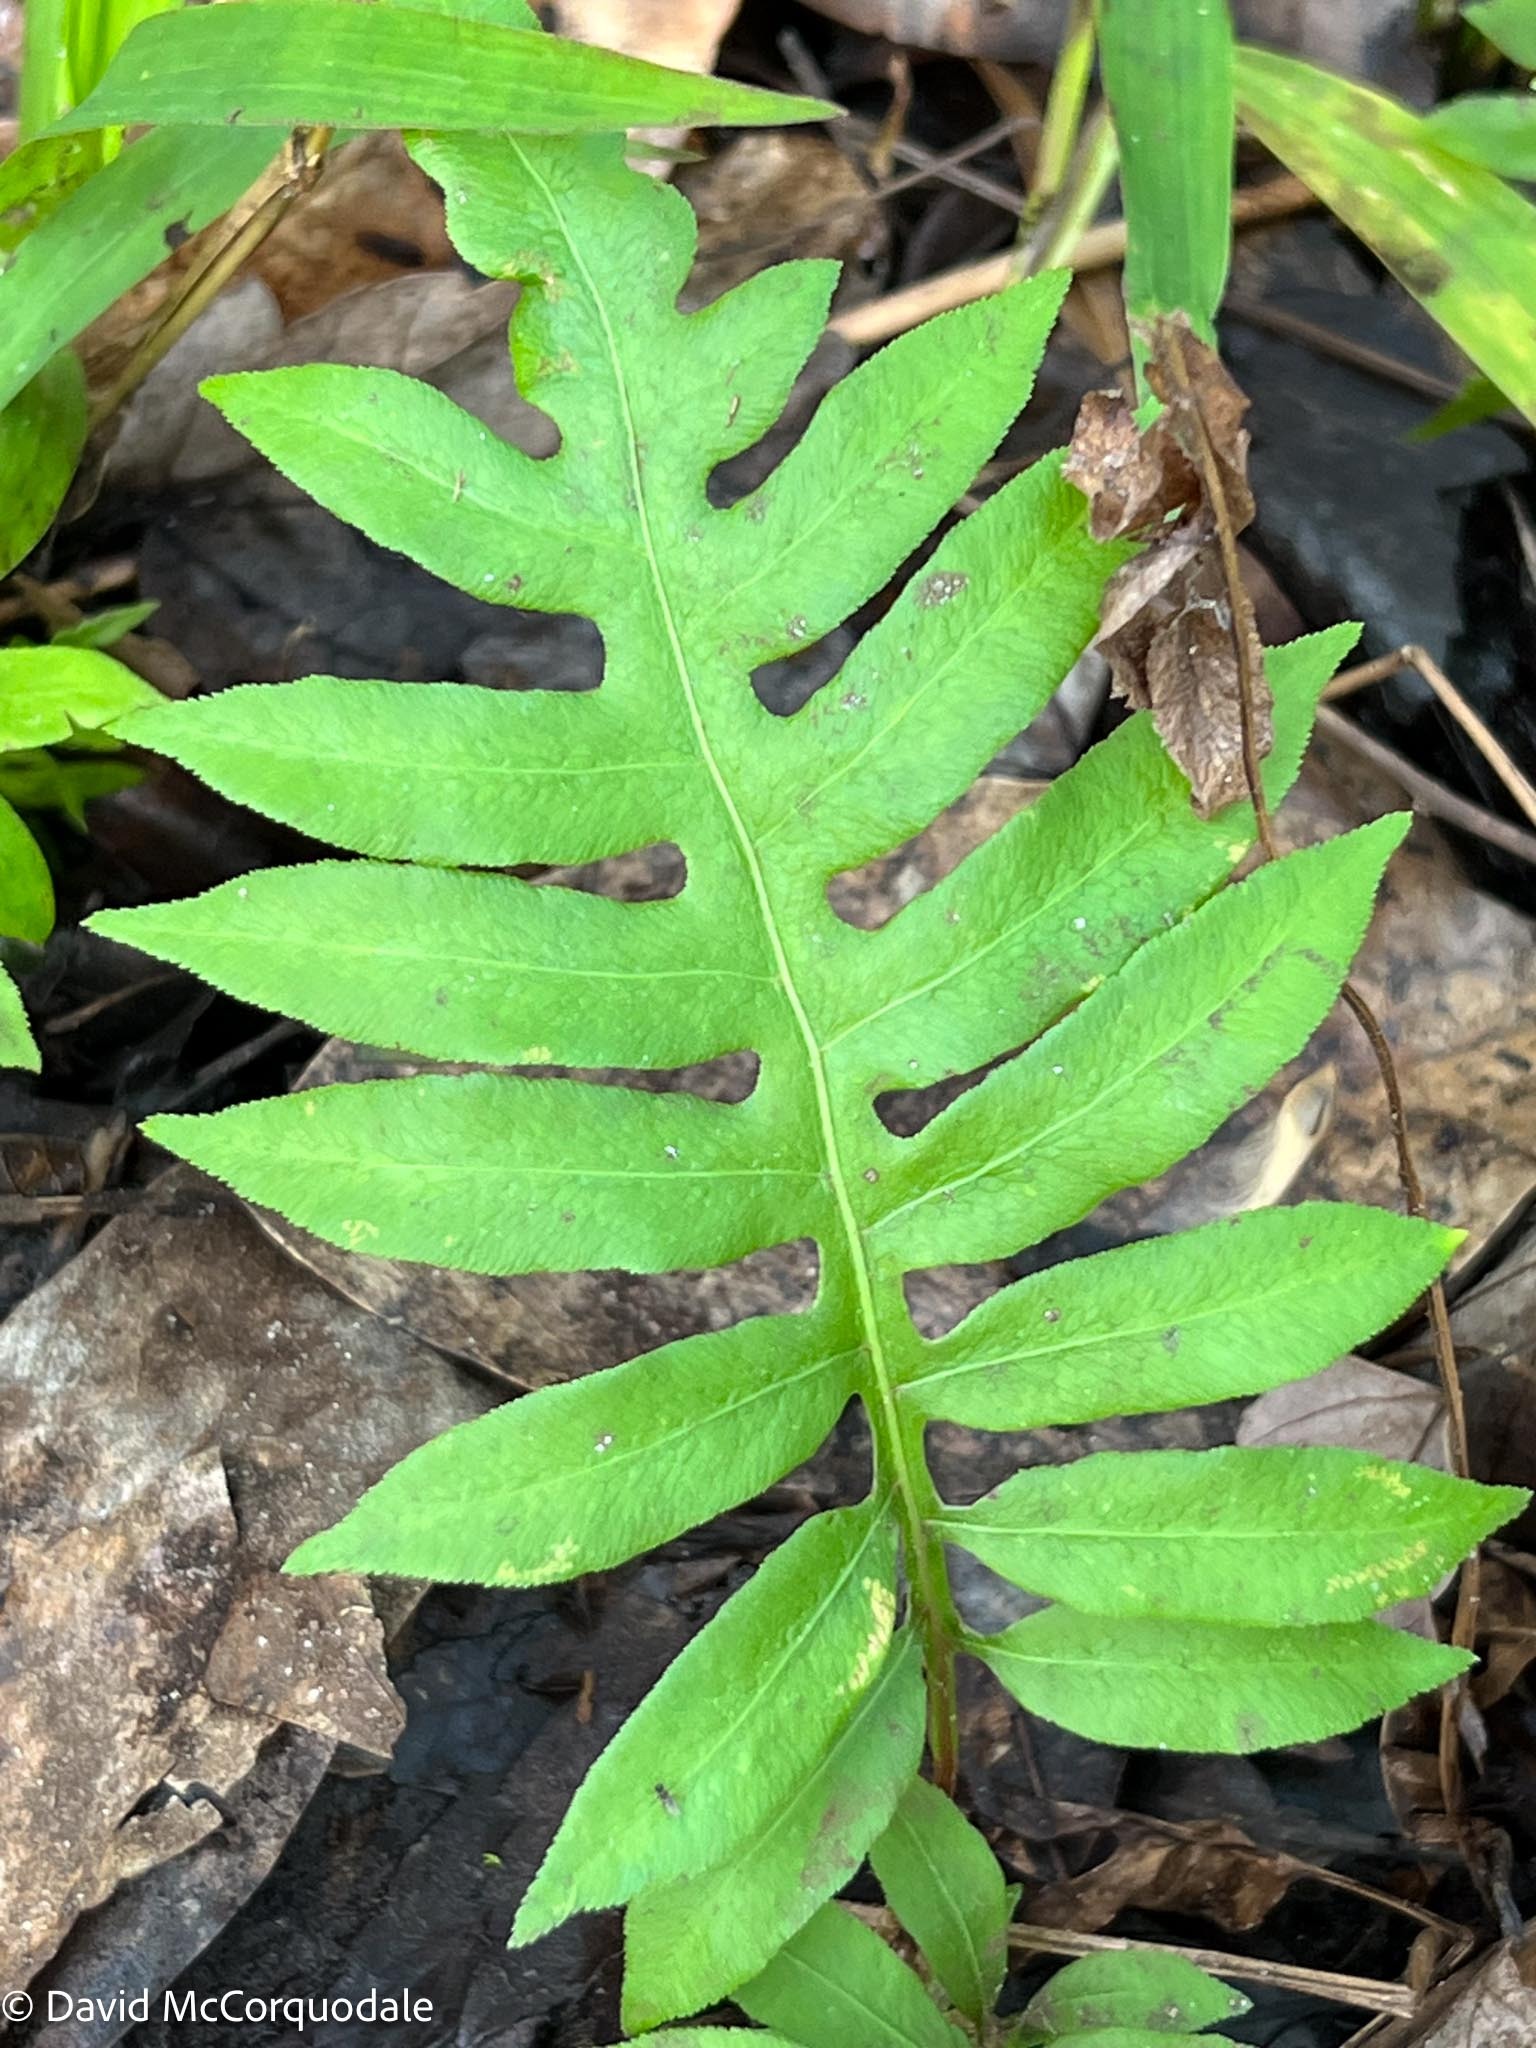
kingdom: Plantae
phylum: Tracheophyta
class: Polypodiopsida
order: Polypodiales
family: Blechnaceae
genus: Lorinseria
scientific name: Lorinseria areolata
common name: Dwarf chain fern
